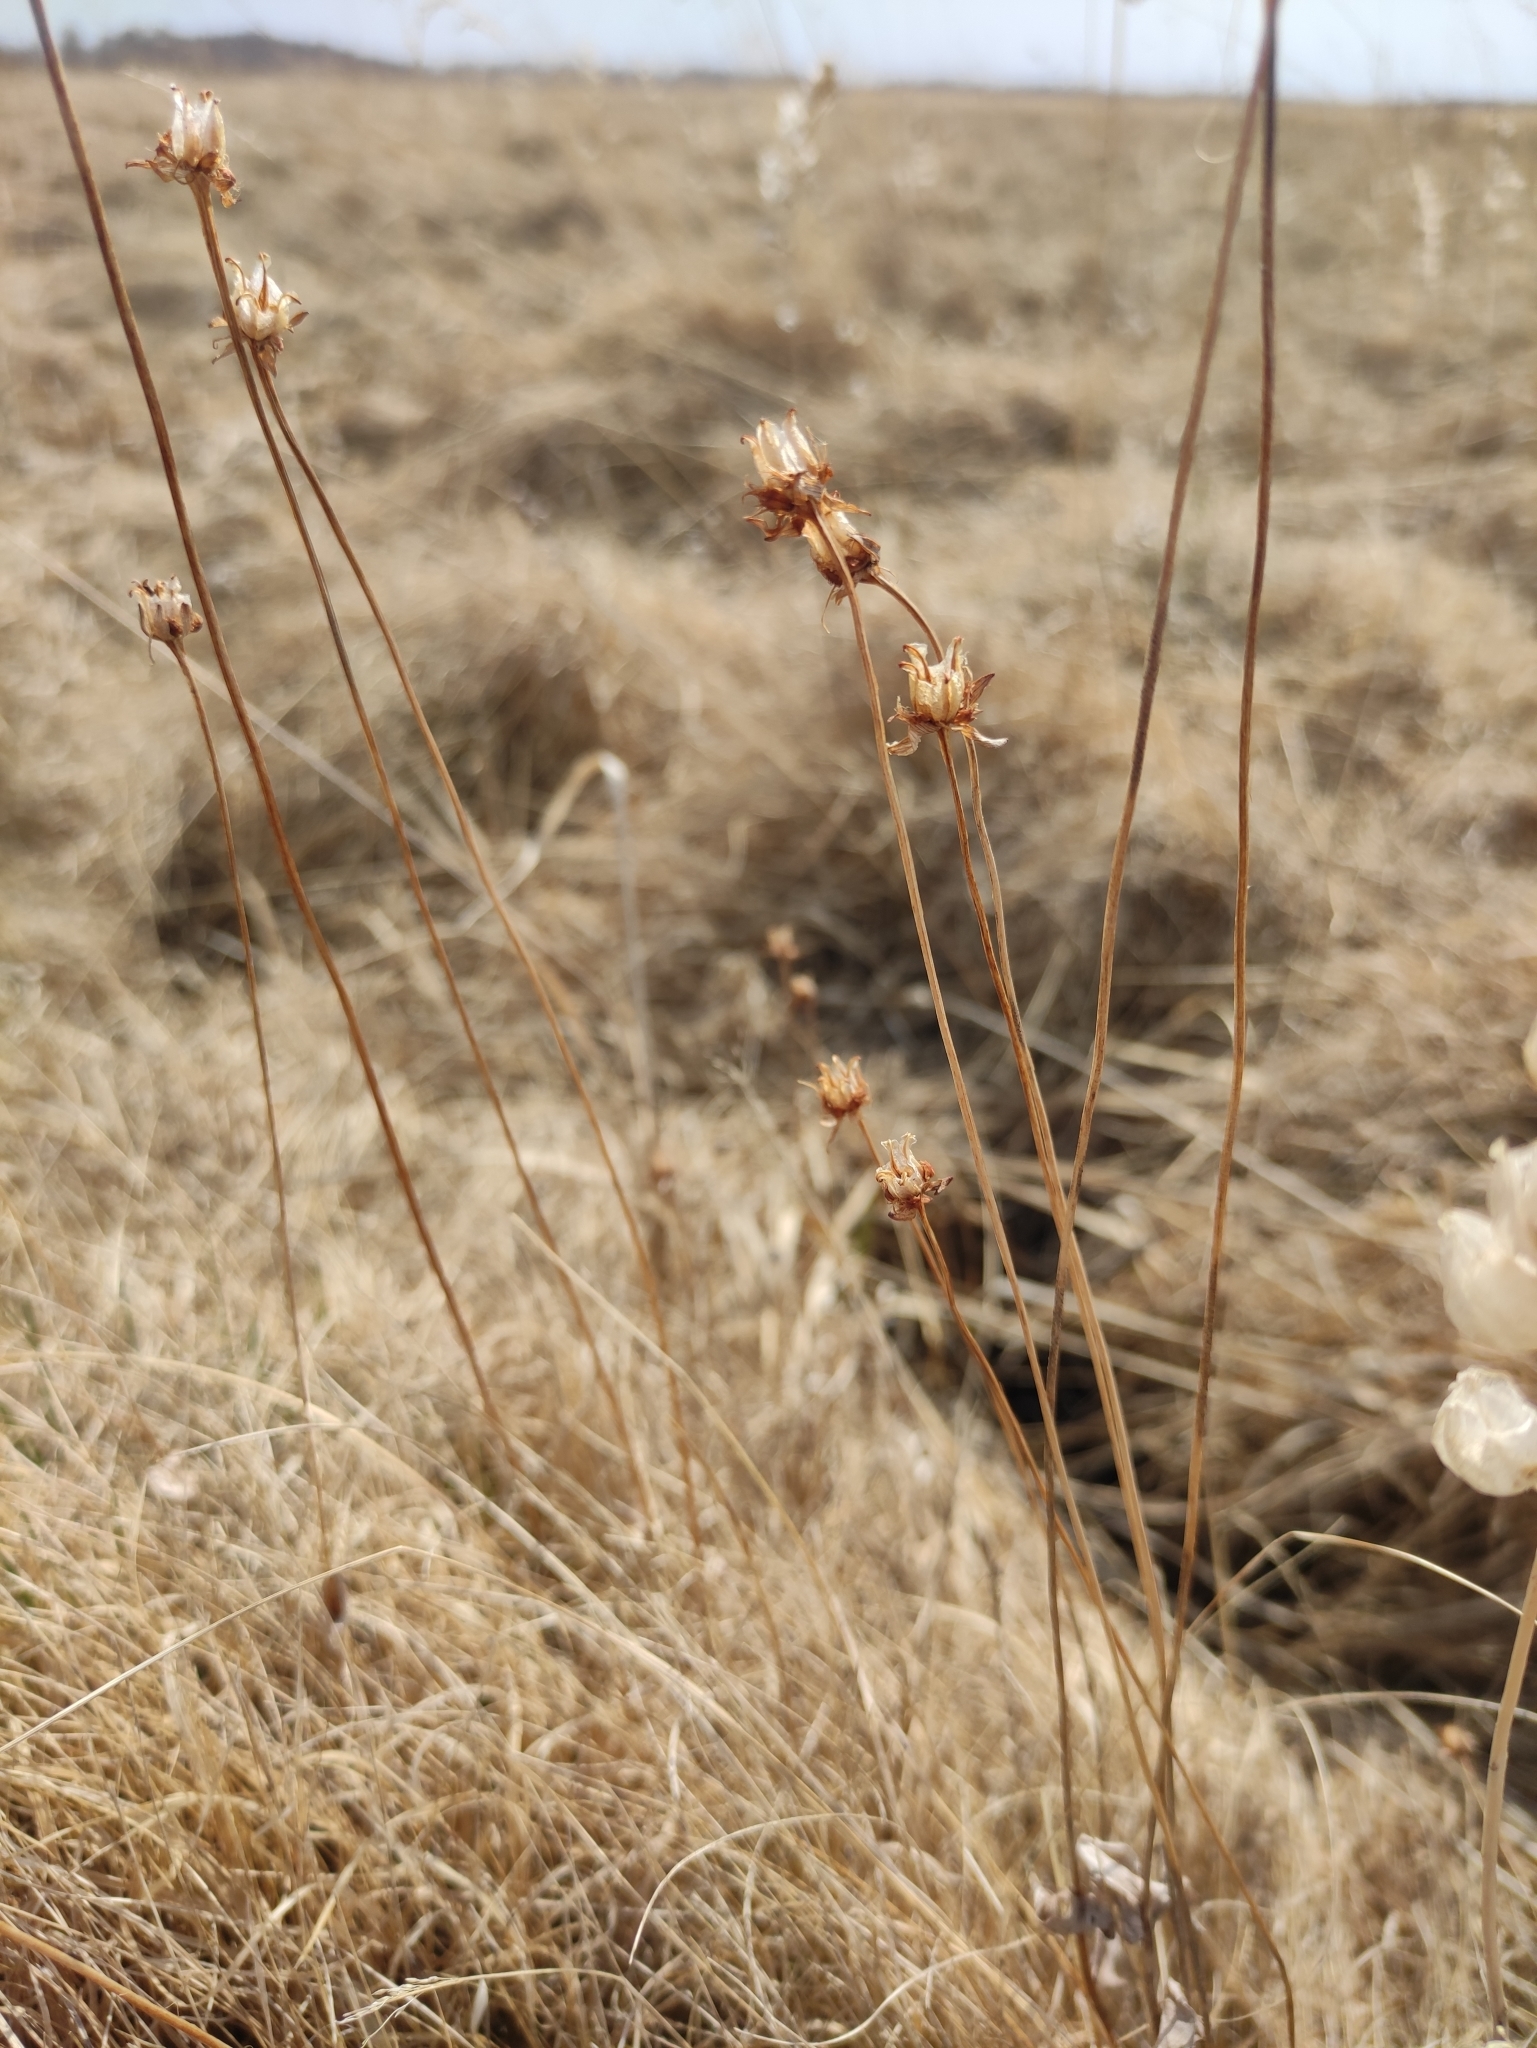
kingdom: Plantae
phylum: Tracheophyta
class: Magnoliopsida
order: Celastrales
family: Parnassiaceae
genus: Parnassia
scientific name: Parnassia palustris
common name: Grass-of-parnassus
